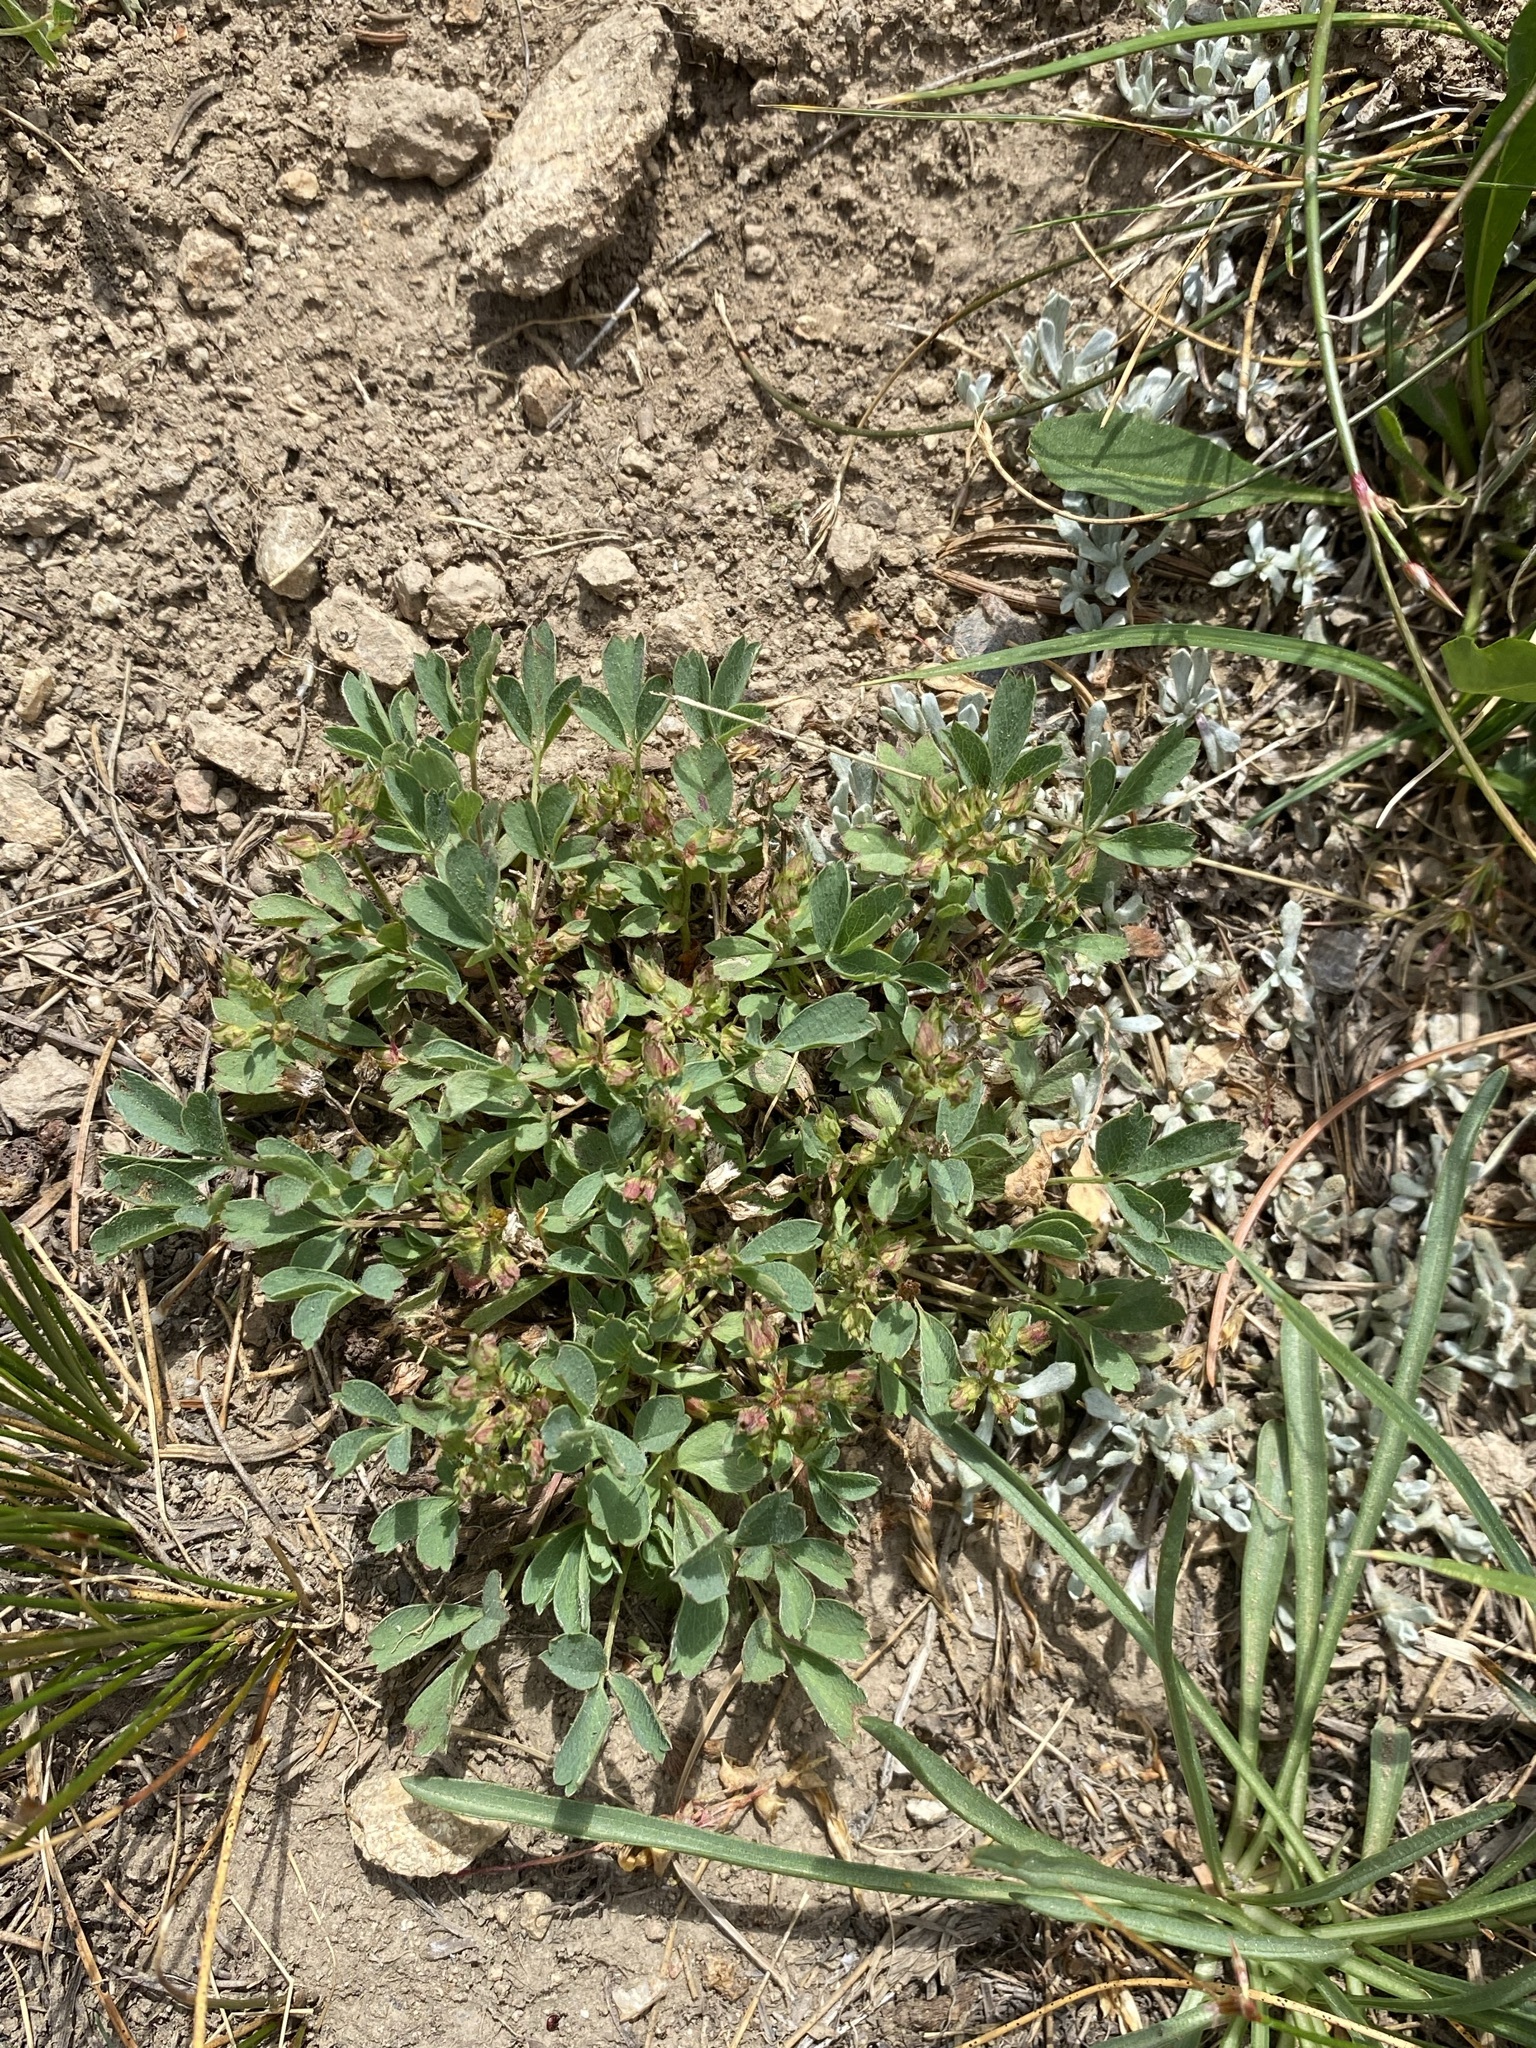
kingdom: Plantae
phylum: Tracheophyta
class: Magnoliopsida
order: Rosales
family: Rosaceae
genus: Sibbaldia
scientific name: Sibbaldia procumbens
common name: Creeping sibbaldia
